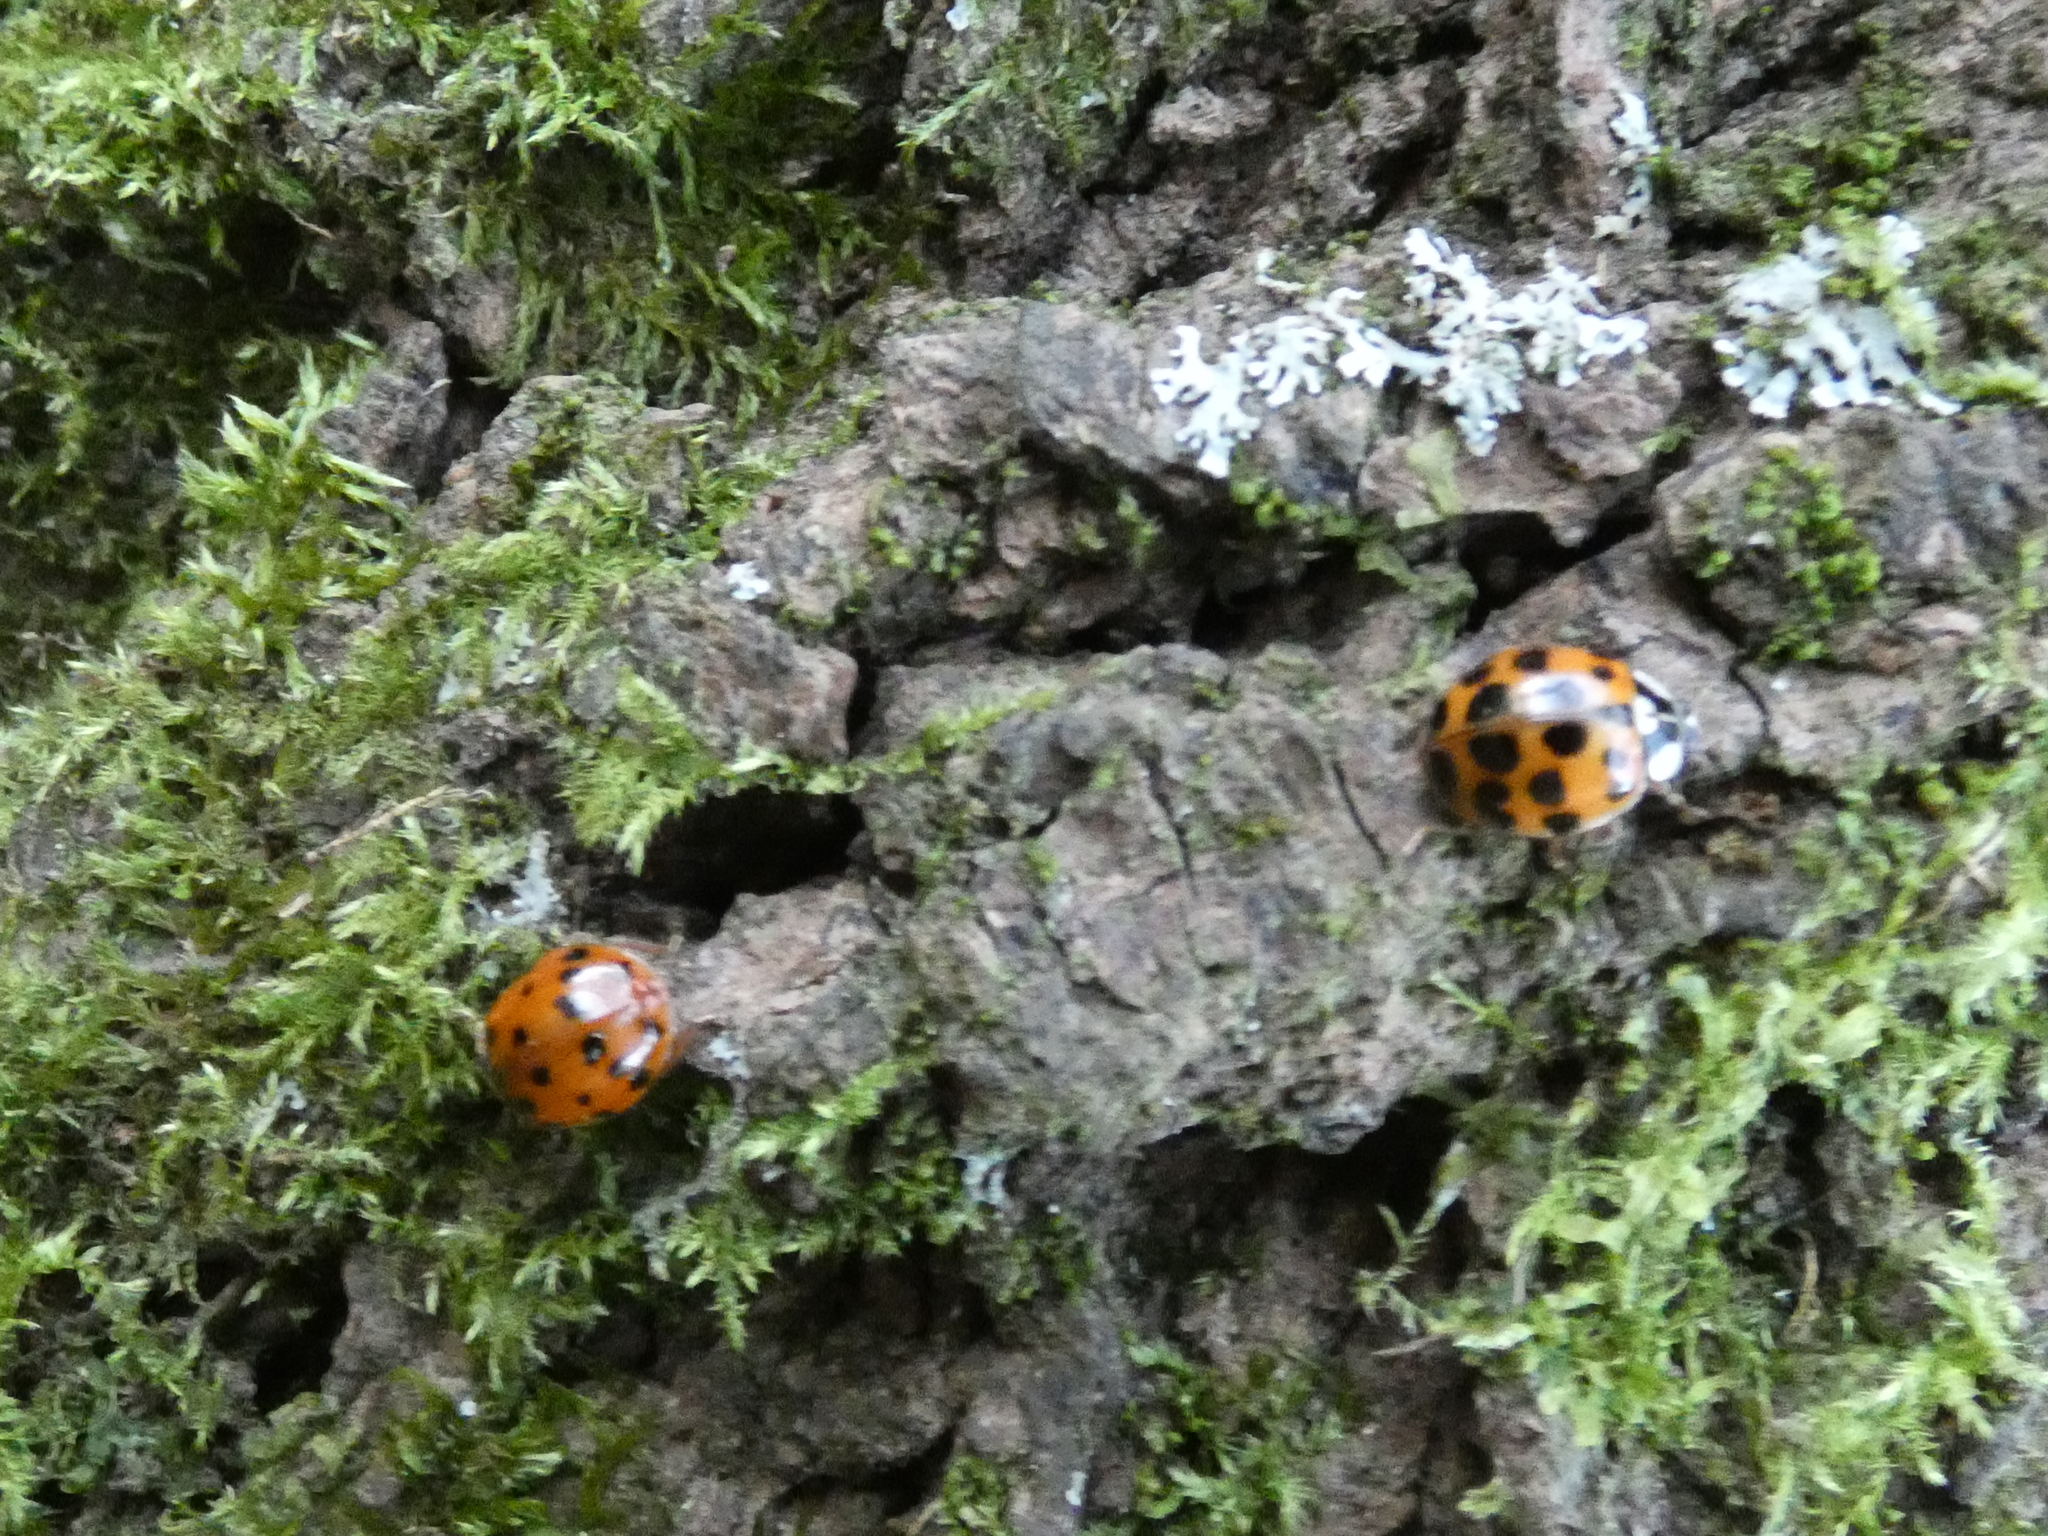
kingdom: Animalia
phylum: Arthropoda
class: Insecta
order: Coleoptera
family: Coccinellidae
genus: Harmonia
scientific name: Harmonia axyridis
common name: Harlequin ladybird
